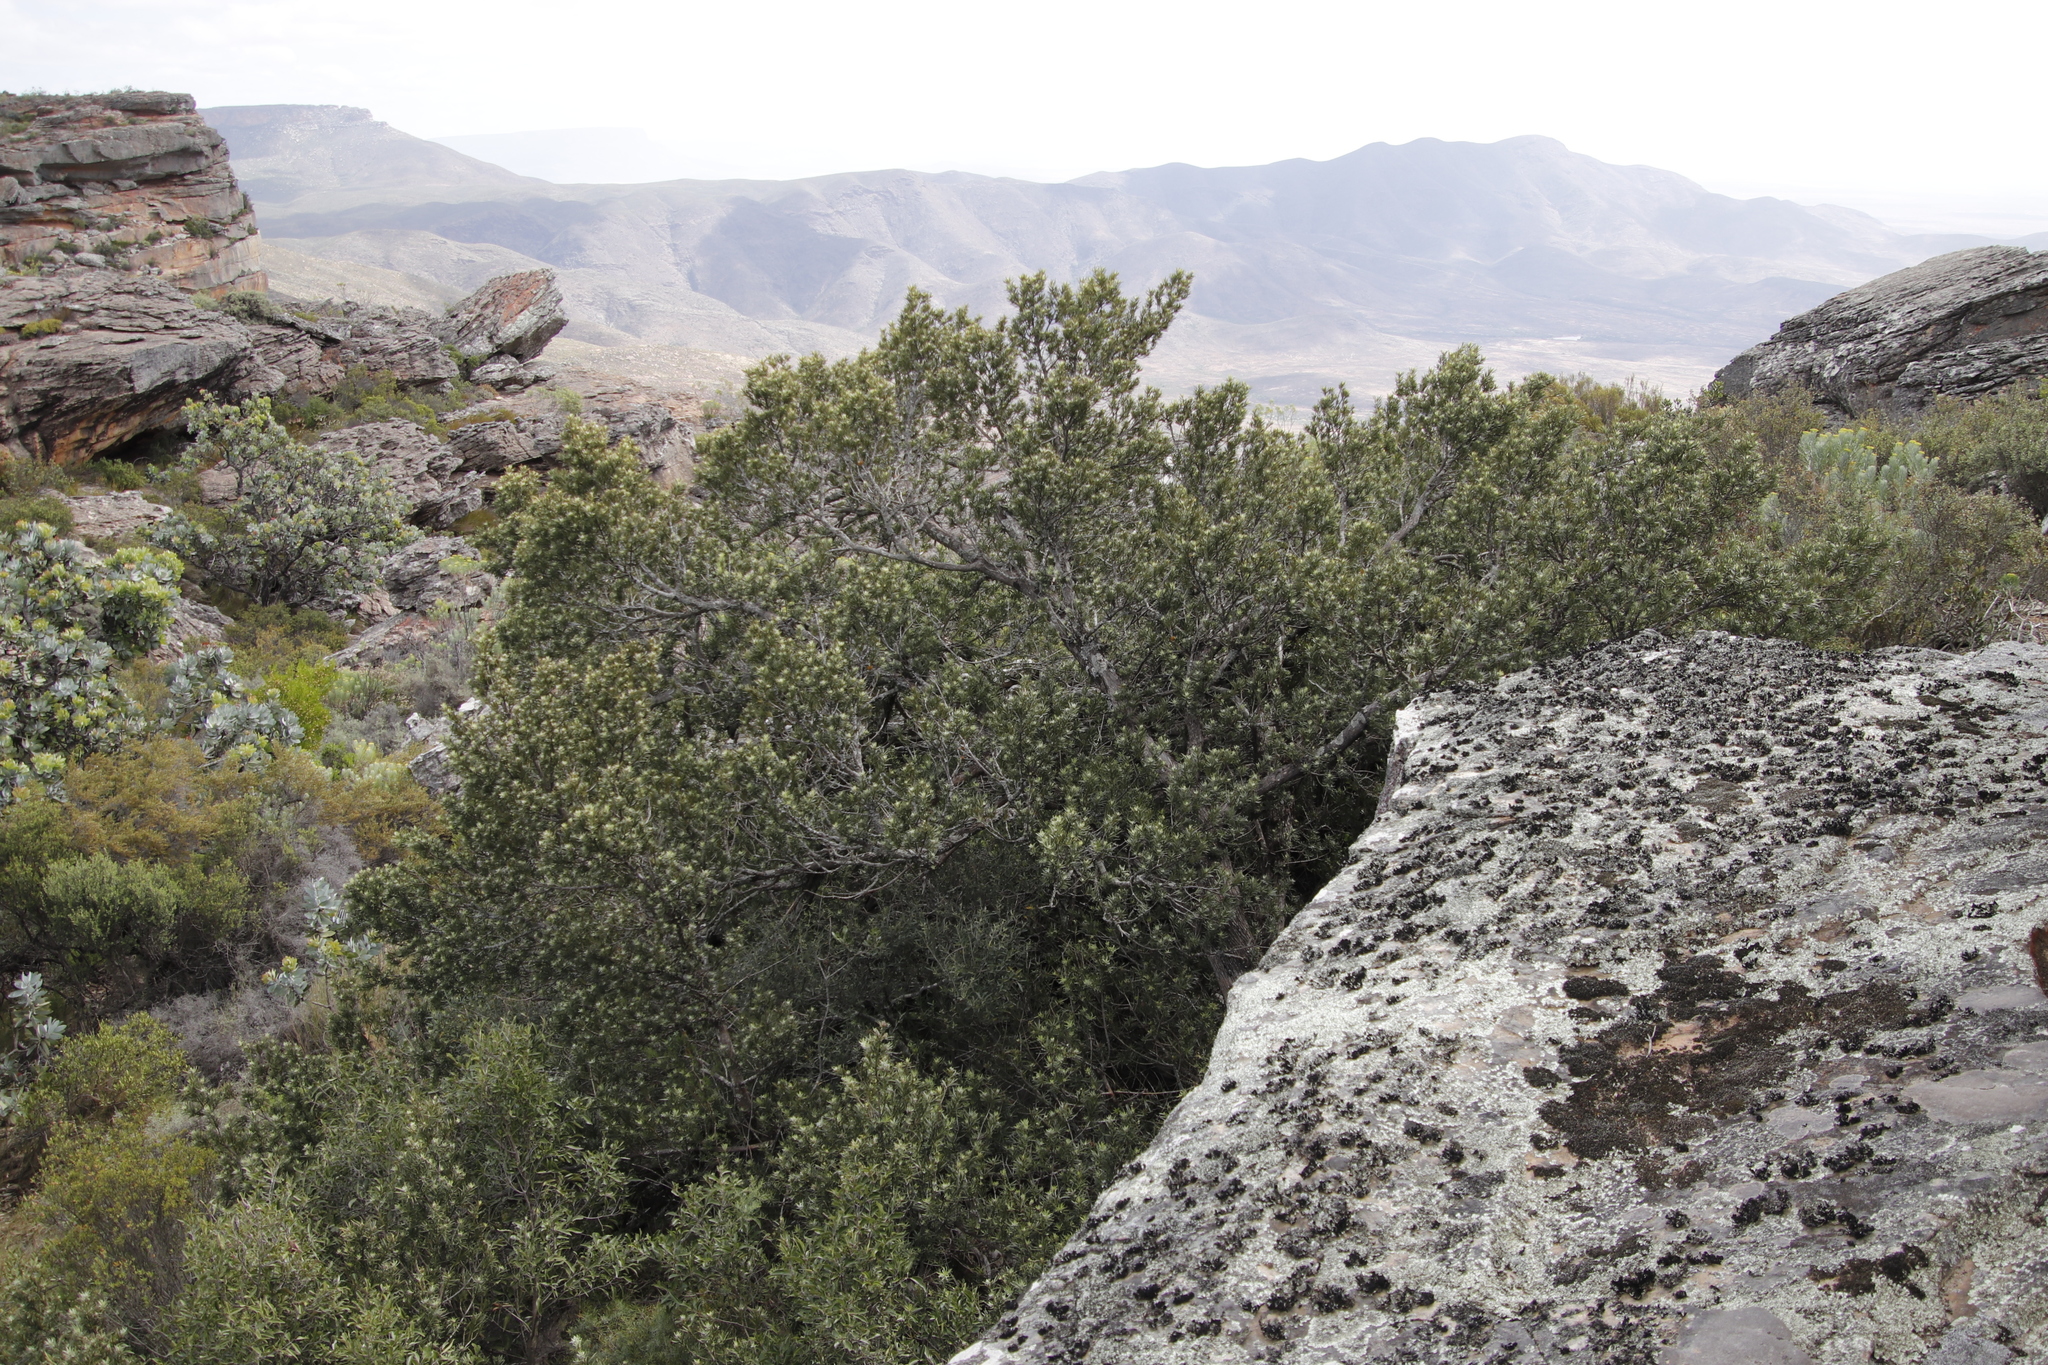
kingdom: Plantae
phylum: Tracheophyta
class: Pinopsida
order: Pinales
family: Podocarpaceae
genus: Podocarpus
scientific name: Podocarpus elongatus
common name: Breede river yellowwood
